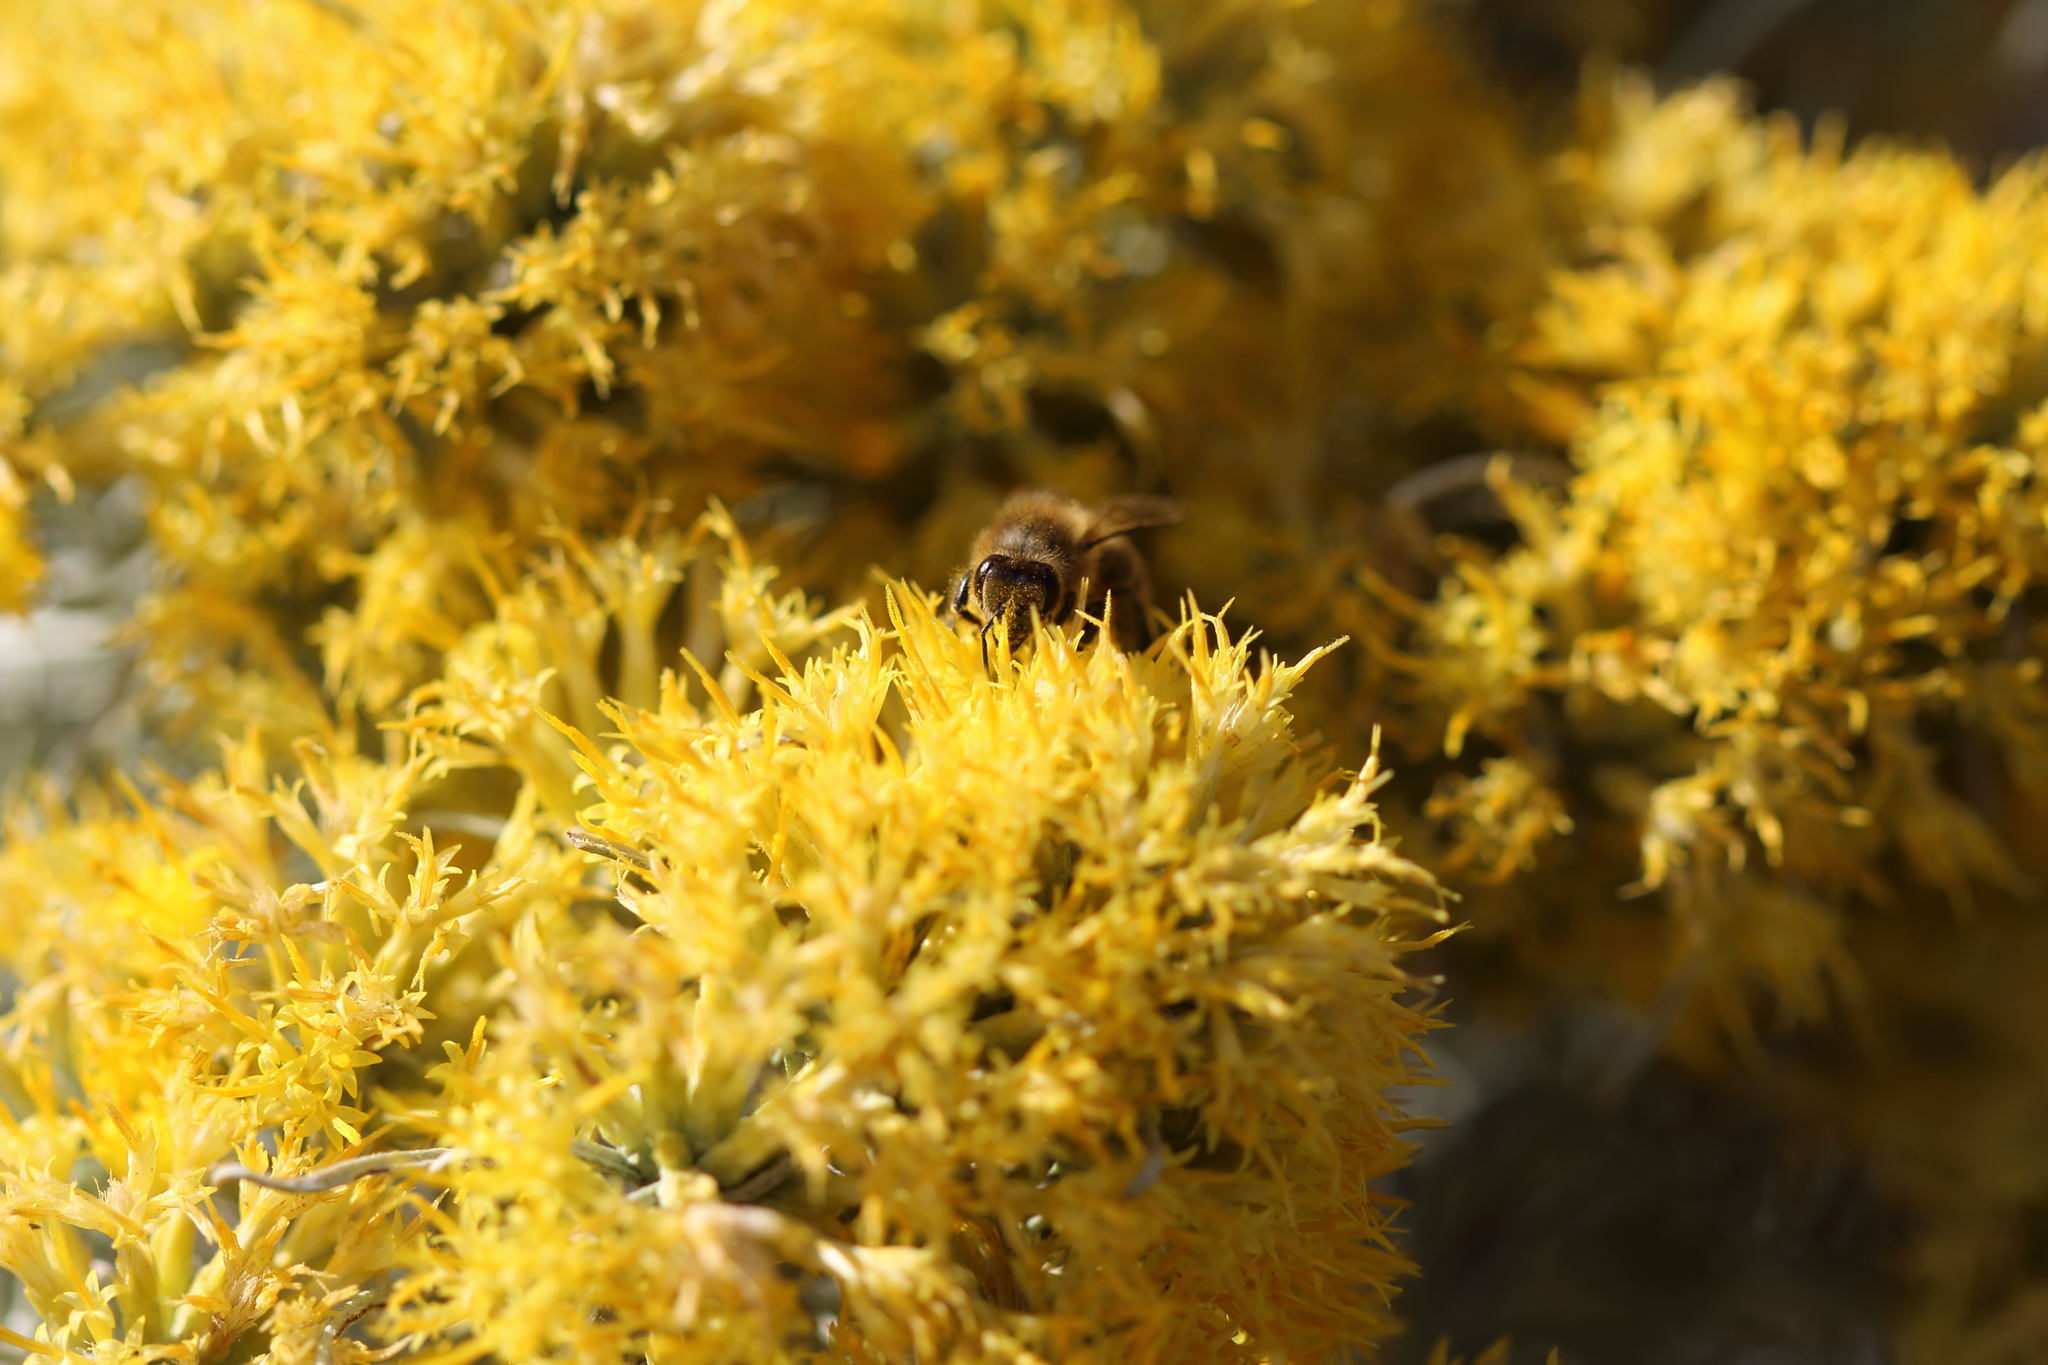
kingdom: Animalia
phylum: Arthropoda
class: Insecta
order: Hymenoptera
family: Apidae
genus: Apis
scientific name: Apis mellifera
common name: Honey bee
